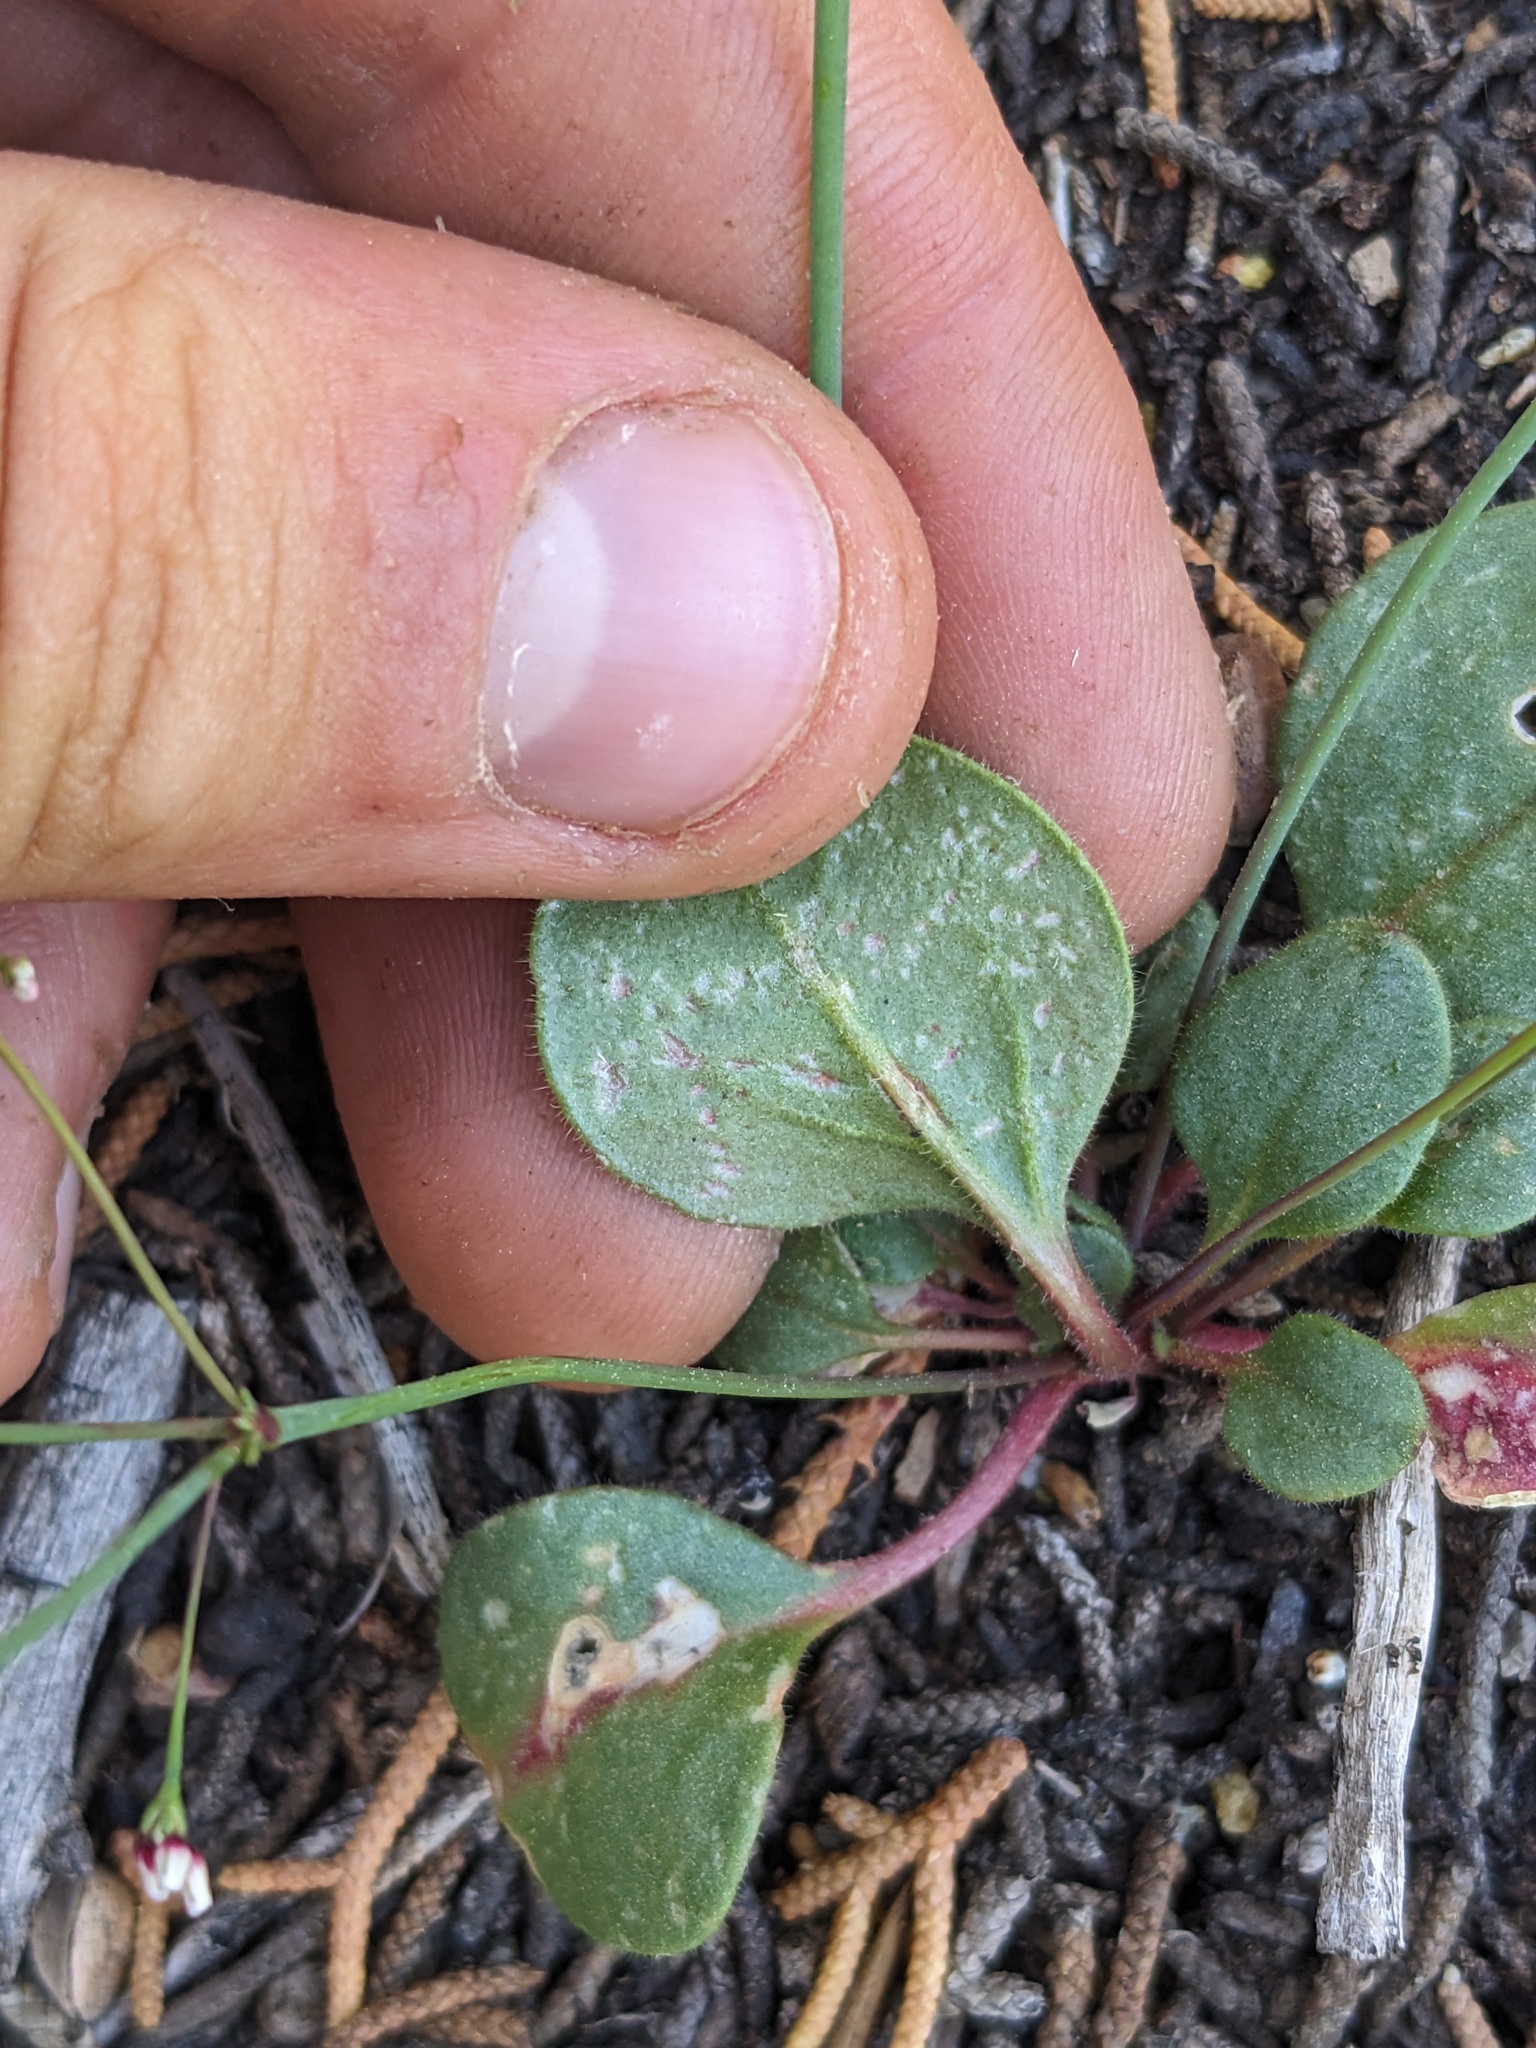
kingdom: Plantae
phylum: Tracheophyta
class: Magnoliopsida
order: Caryophyllales
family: Polygonaceae
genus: Eriogonum
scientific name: Eriogonum esmeraldense
